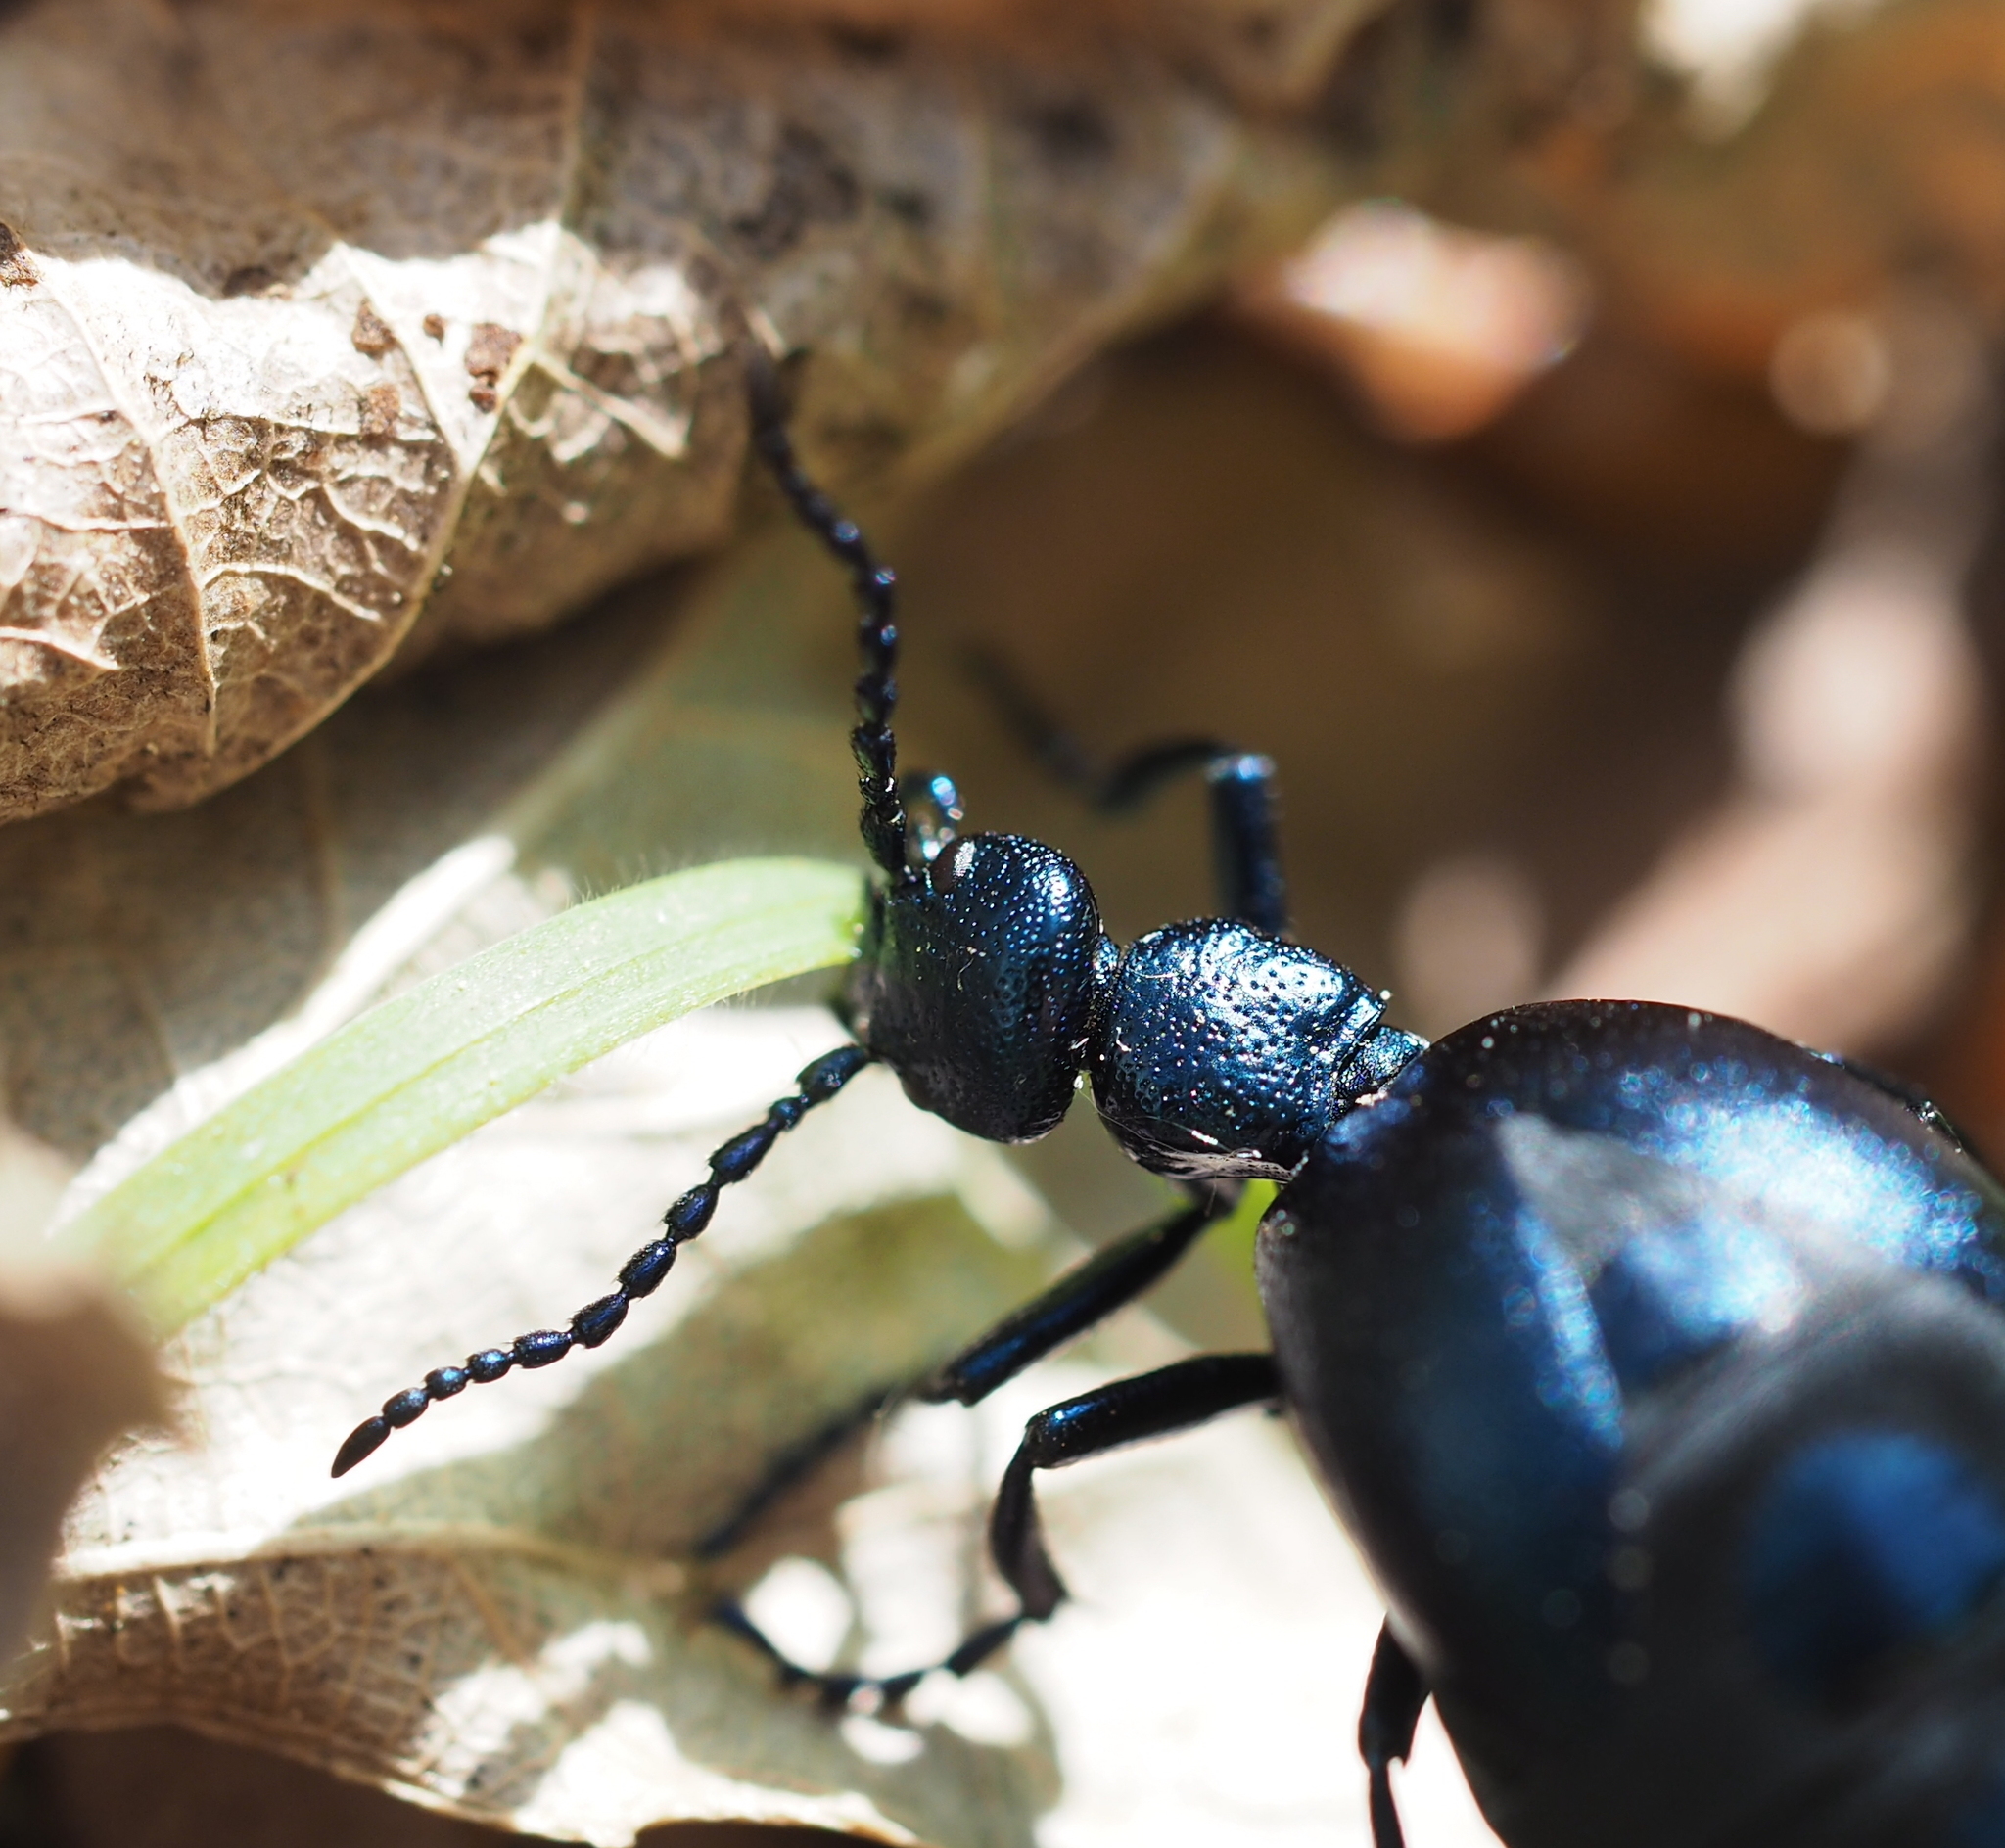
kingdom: Animalia
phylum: Arthropoda
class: Insecta
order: Coleoptera
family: Meloidae
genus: Meloe
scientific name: Meloe violaceus
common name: Violet oil-beetle
